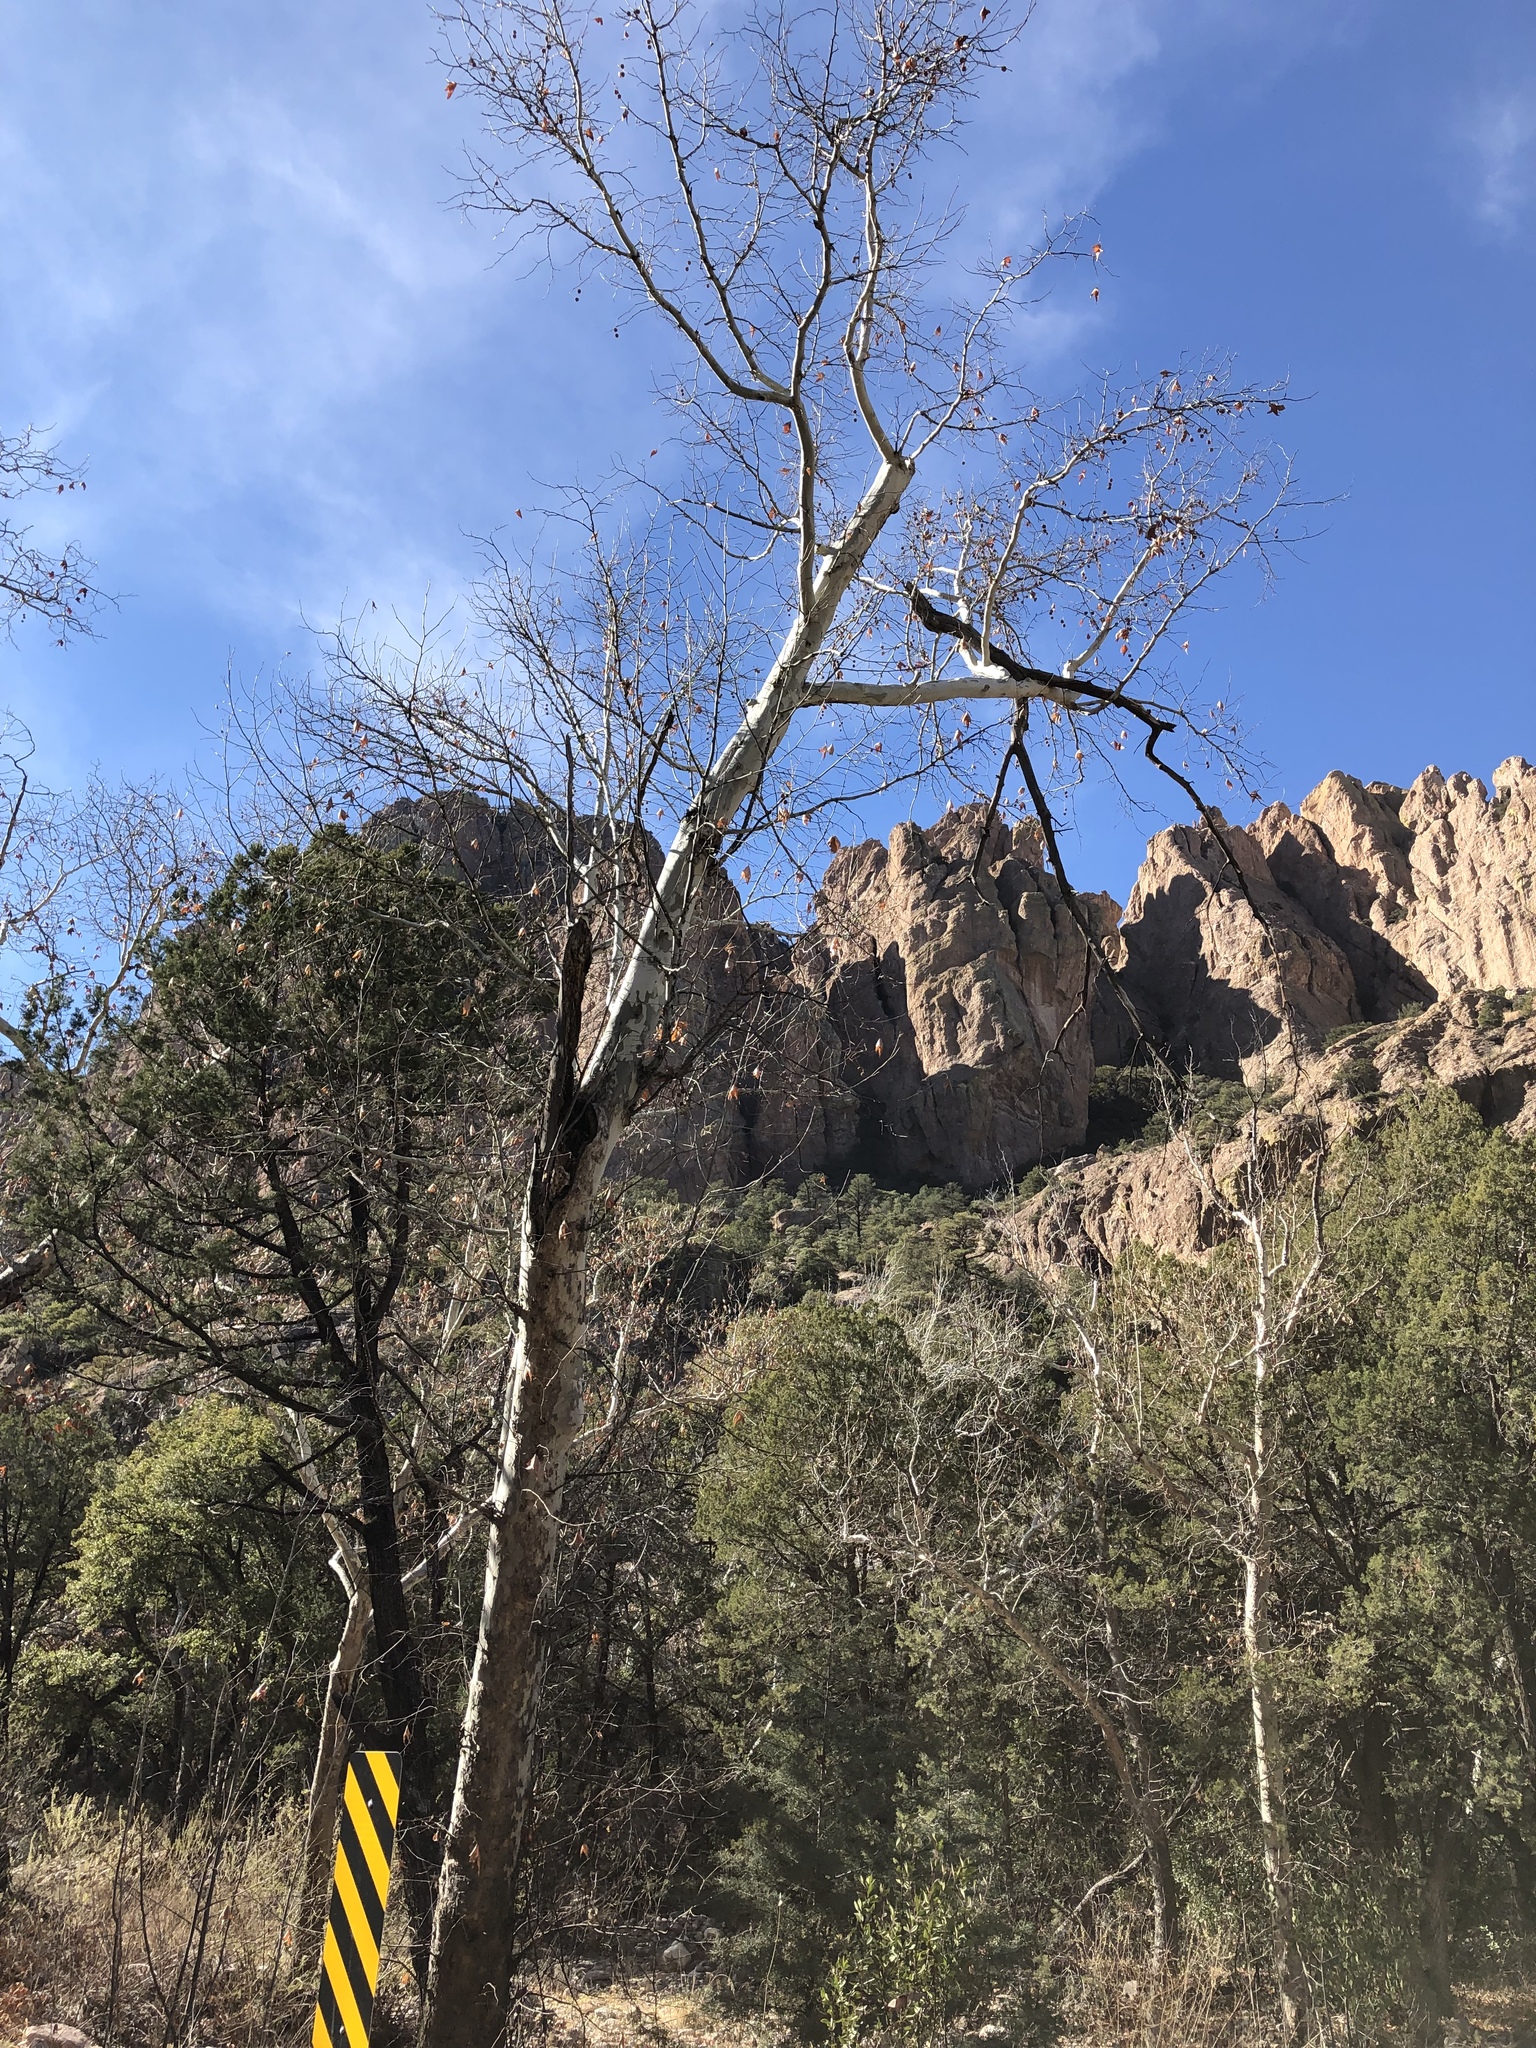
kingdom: Plantae
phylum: Tracheophyta
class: Magnoliopsida
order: Proteales
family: Platanaceae
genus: Platanus
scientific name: Platanus wrightii
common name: Arizona sycamore
